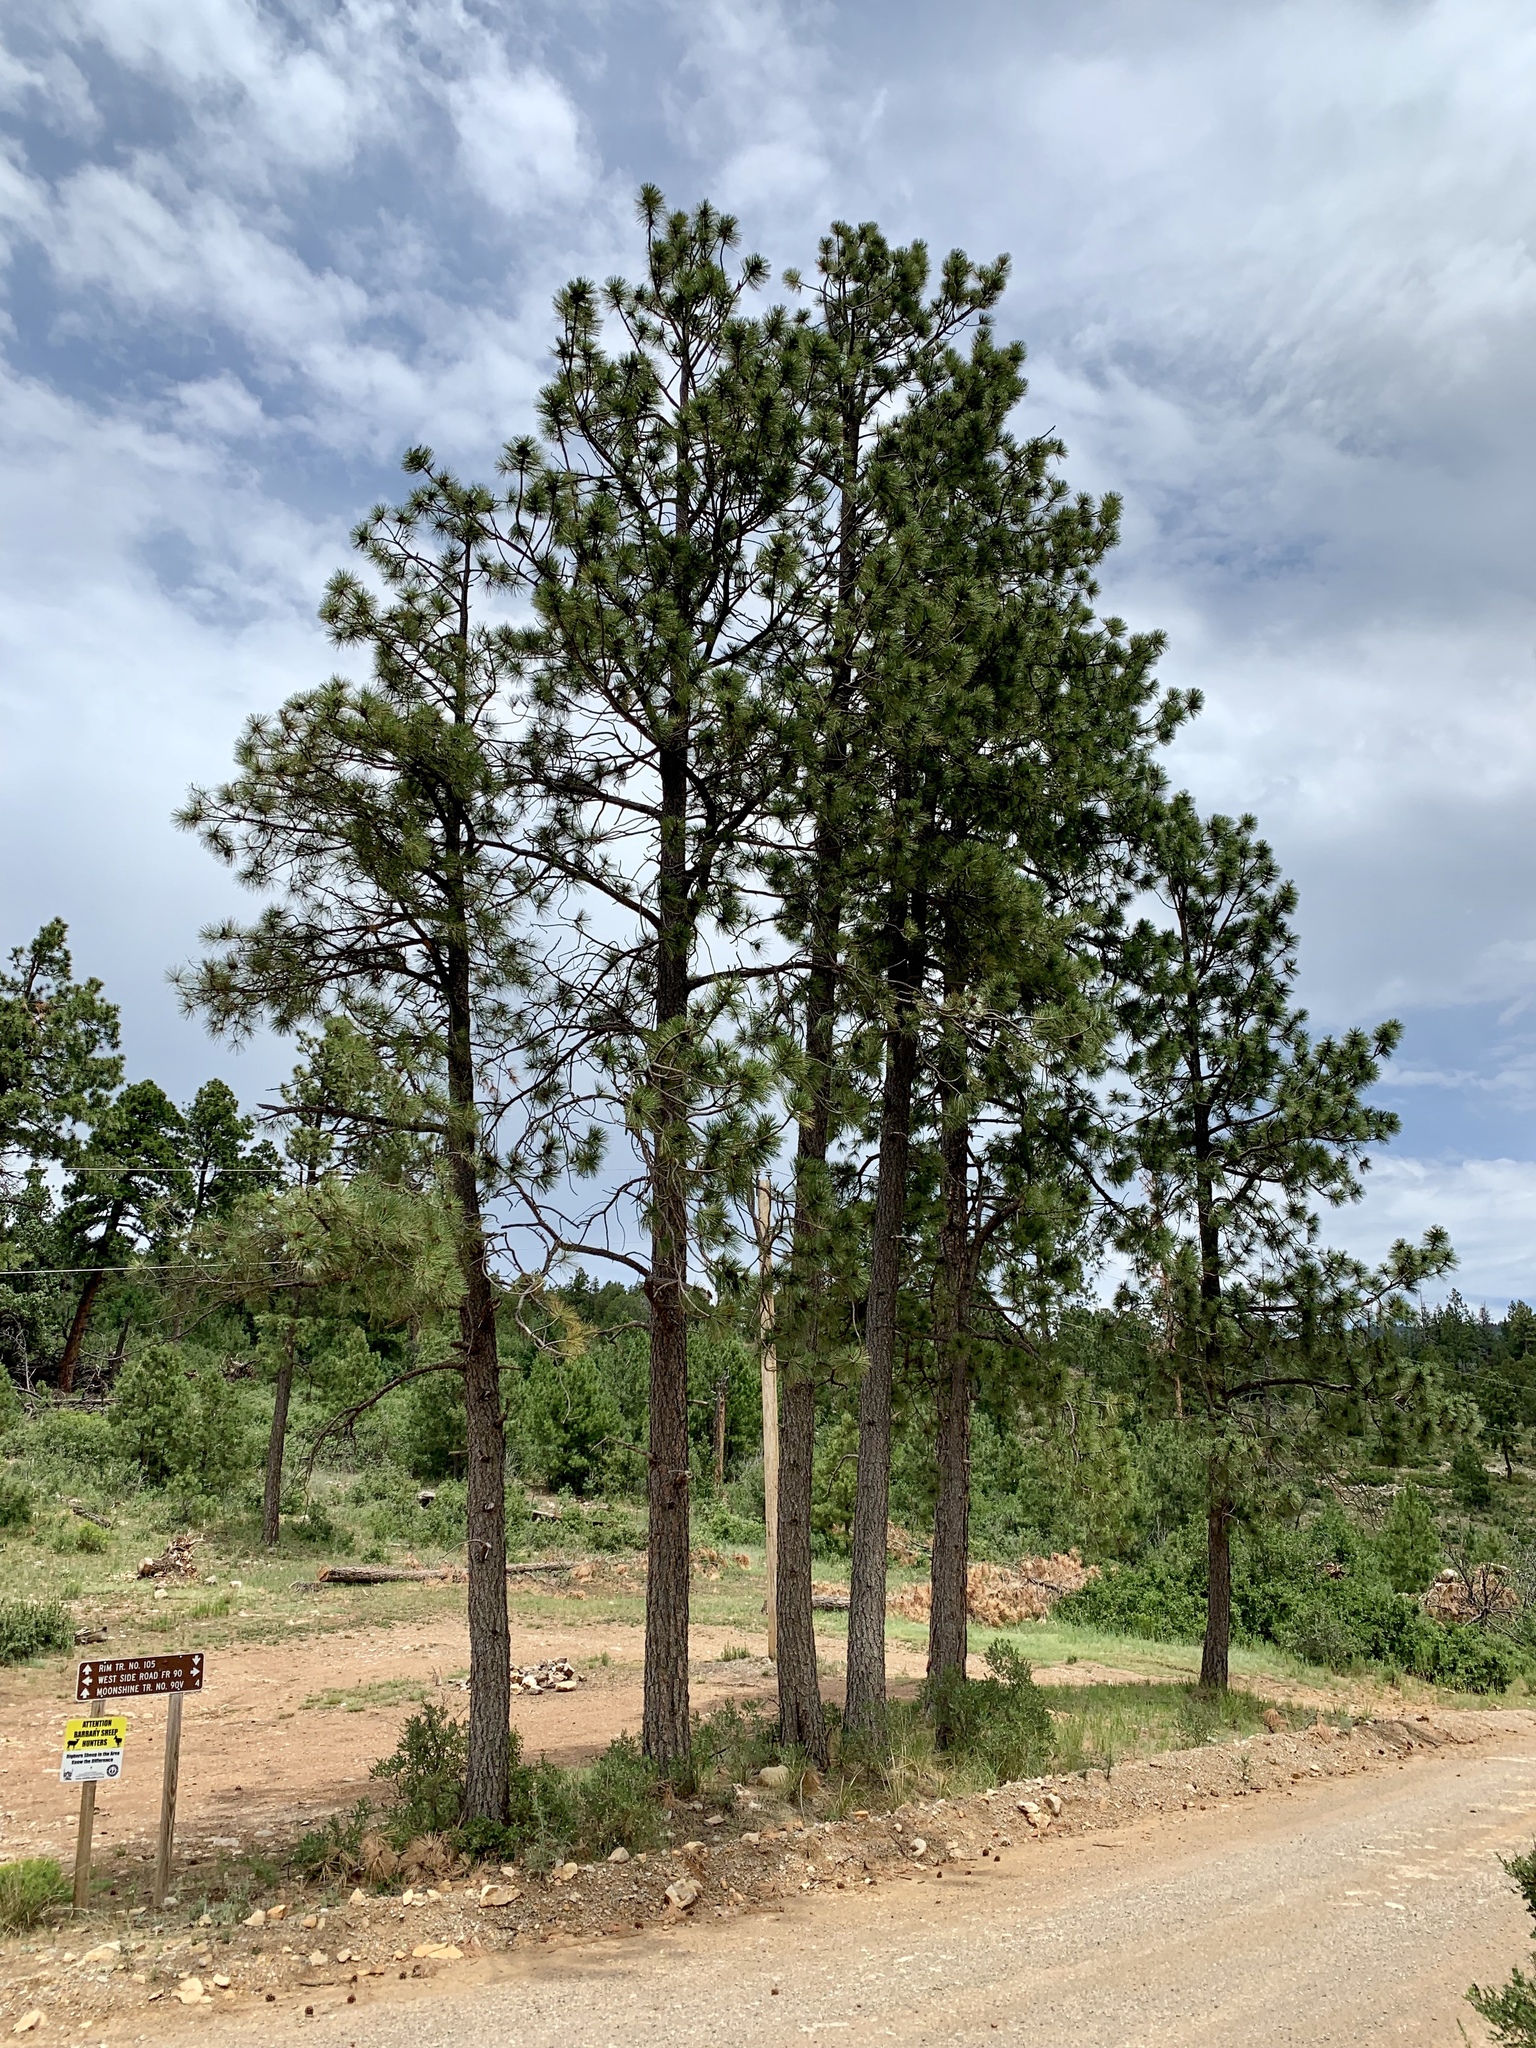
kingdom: Plantae
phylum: Tracheophyta
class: Pinopsida
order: Pinales
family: Pinaceae
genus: Pinus
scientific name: Pinus ponderosa
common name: Western yellow-pine
